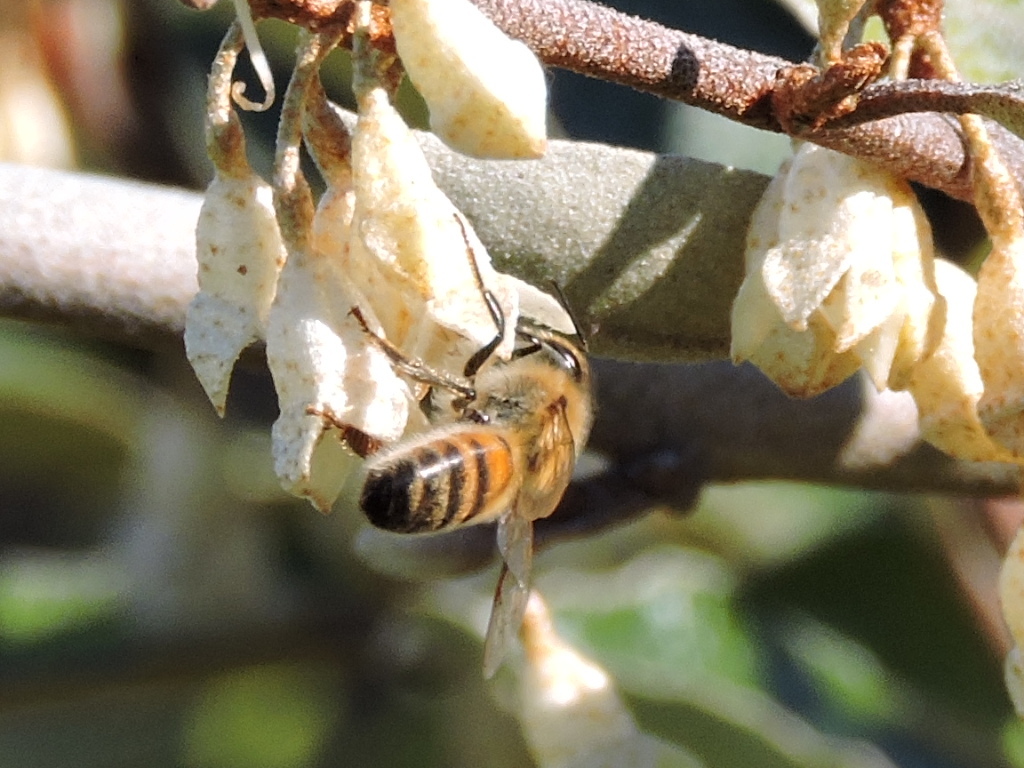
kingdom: Animalia
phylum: Arthropoda
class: Insecta
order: Hymenoptera
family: Apidae
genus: Apis
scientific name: Apis mellifera
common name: Honey bee
